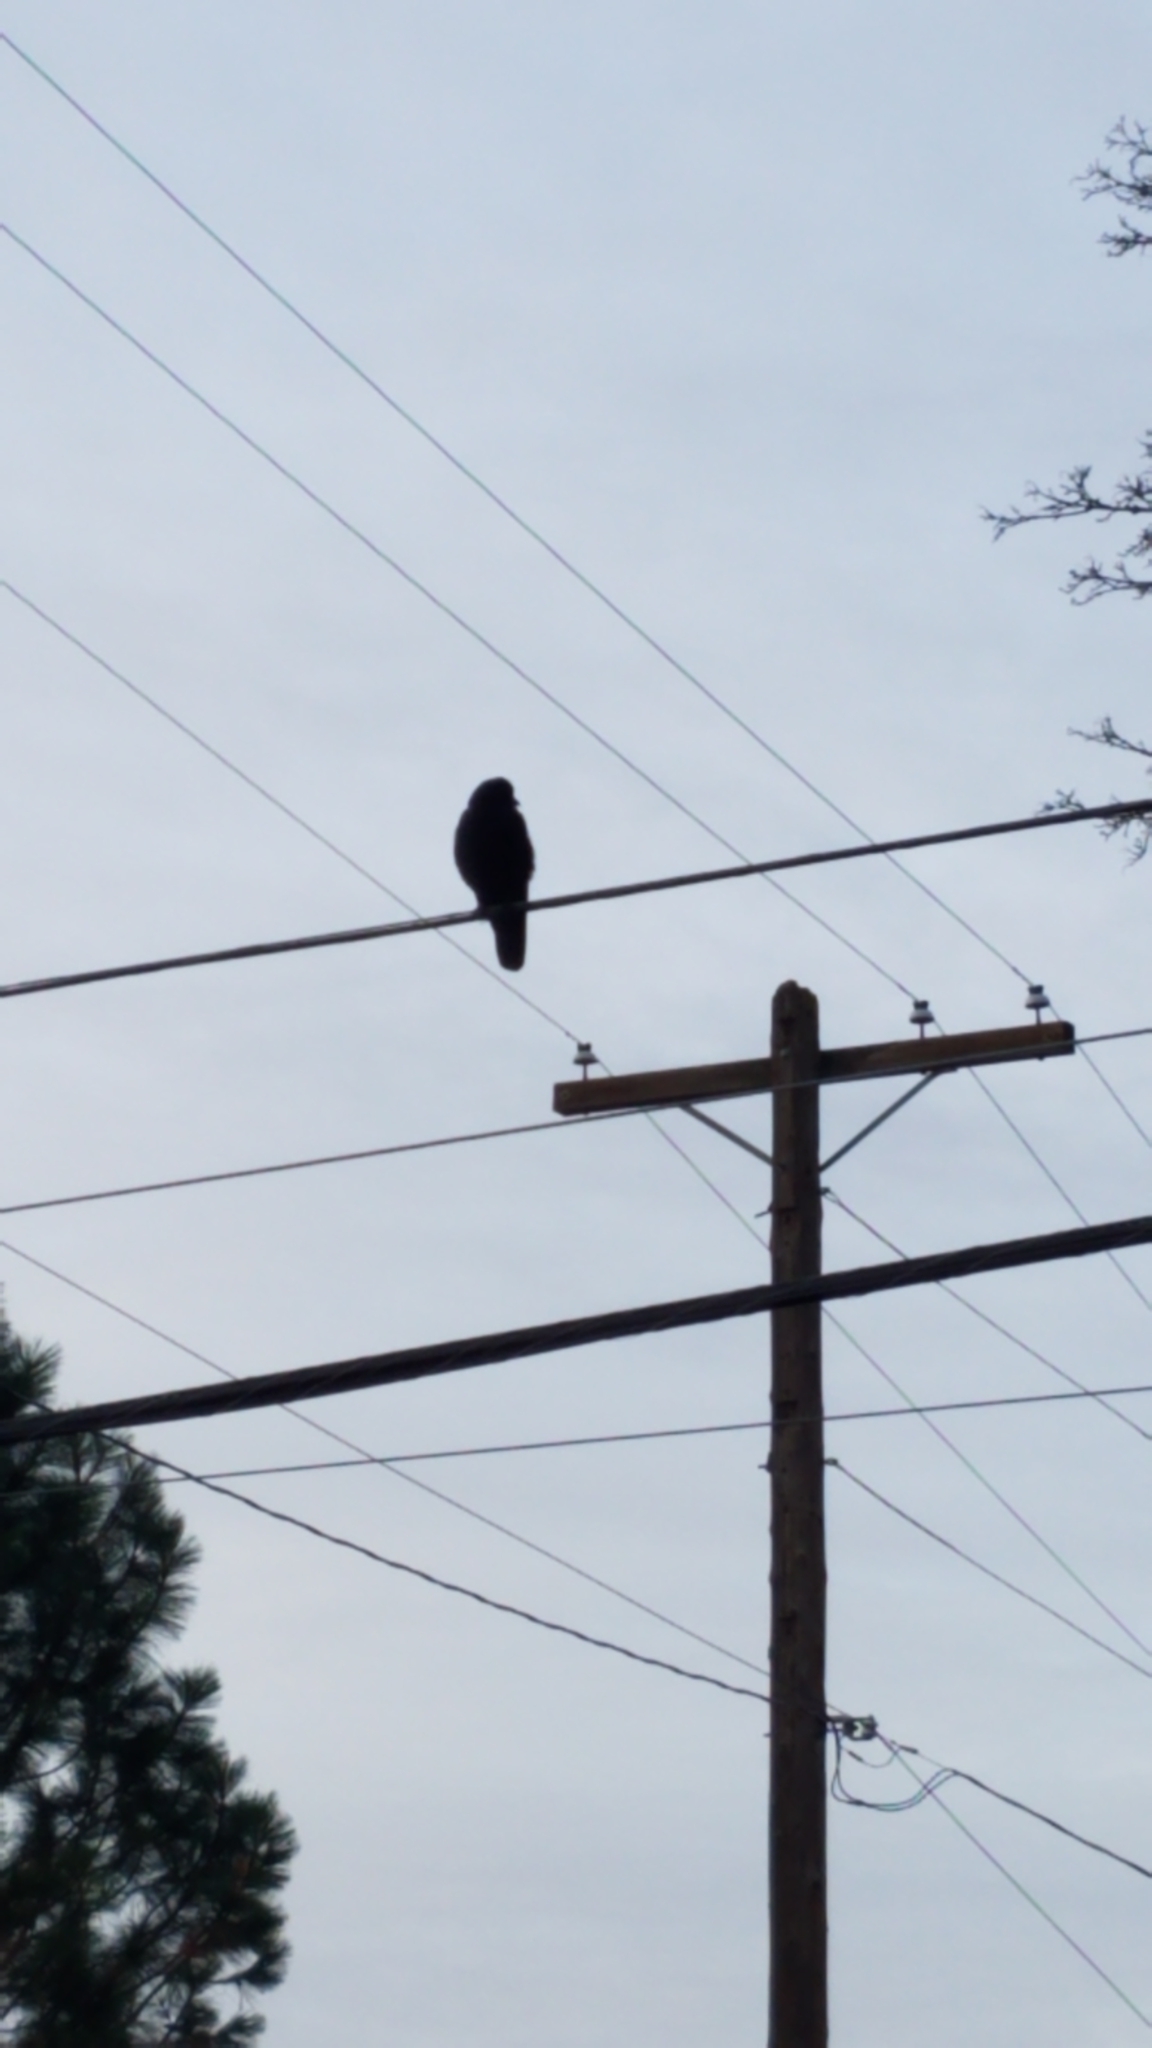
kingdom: Animalia
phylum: Chordata
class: Aves
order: Passeriformes
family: Corvidae
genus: Corvus
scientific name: Corvus
